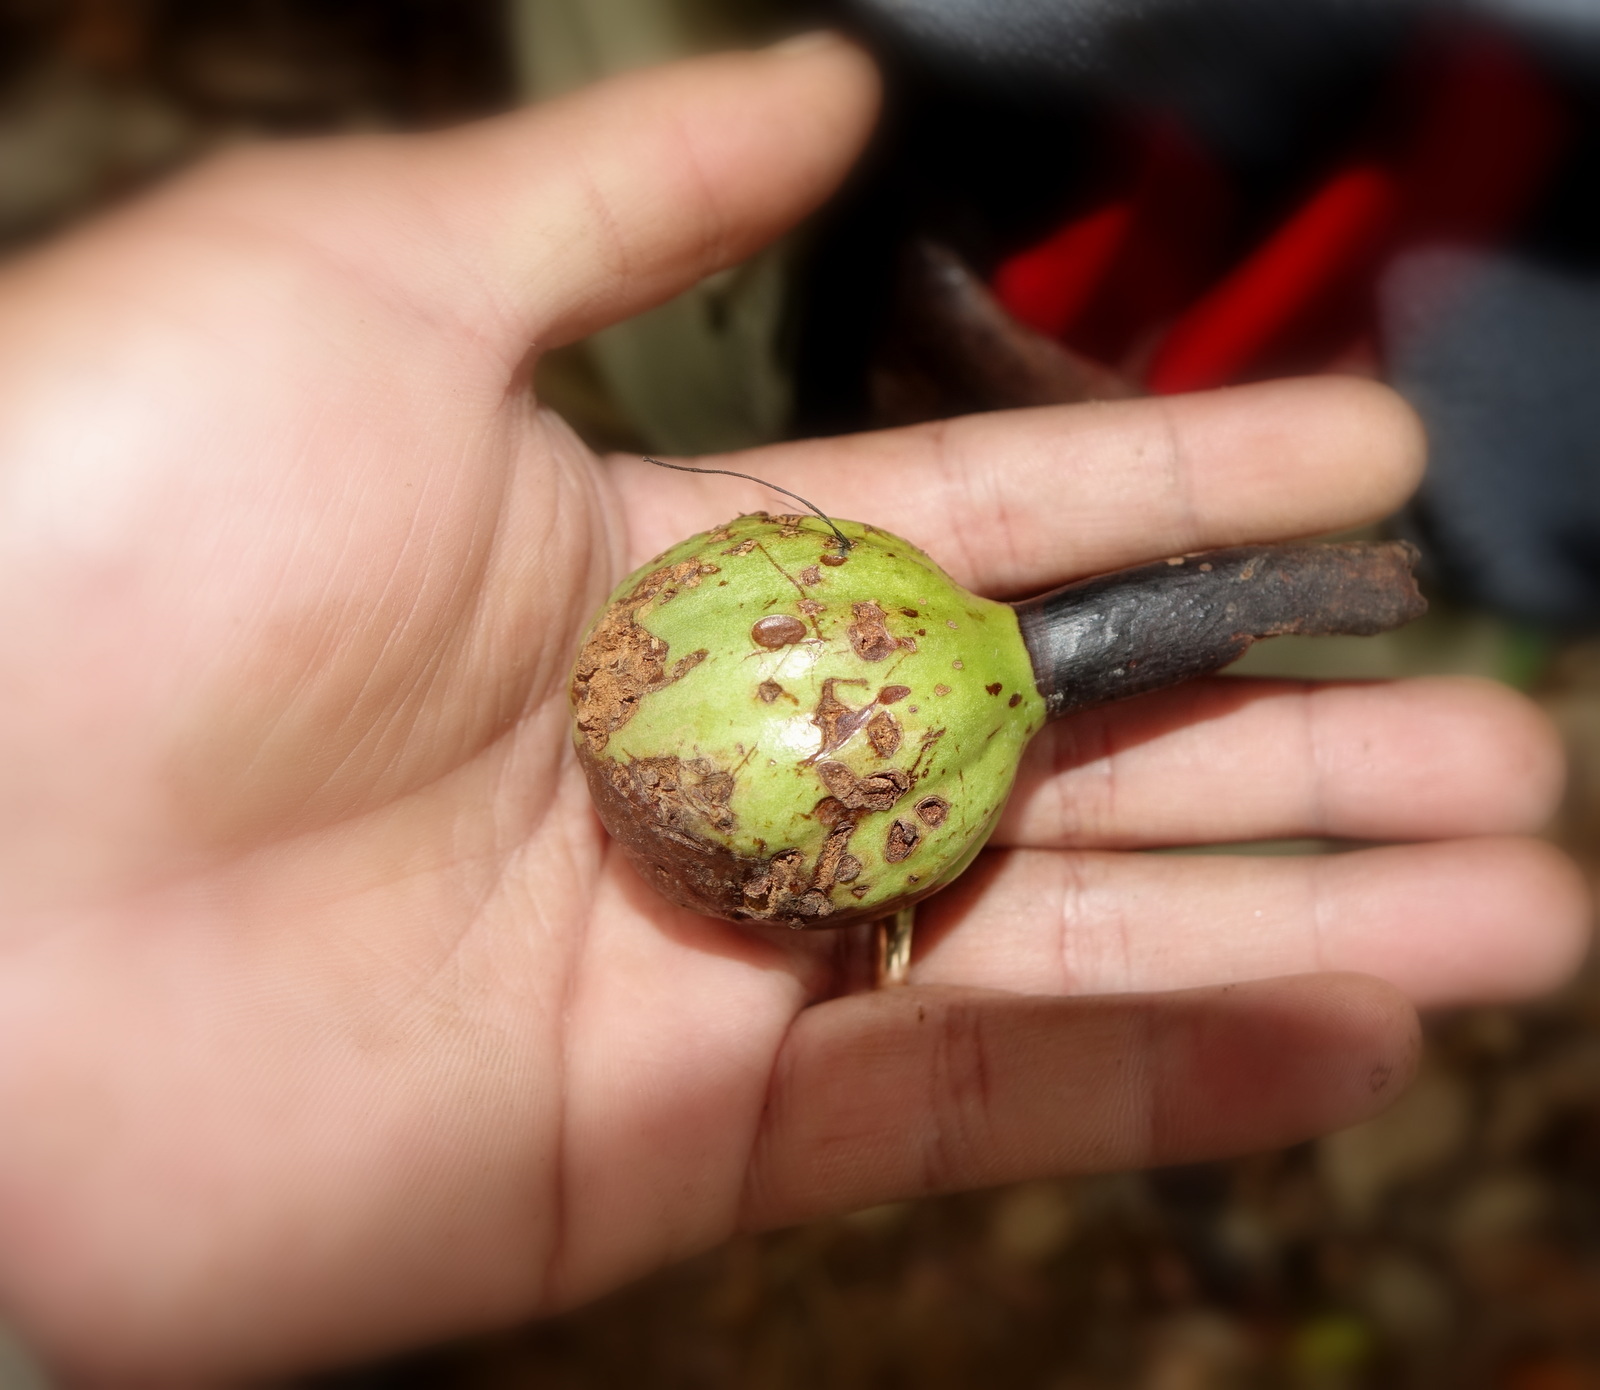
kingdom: Plantae
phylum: Tracheophyta
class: Magnoliopsida
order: Gentianales
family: Rubiaceae
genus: Hyperacanthus
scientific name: Hyperacanthus talangninia
